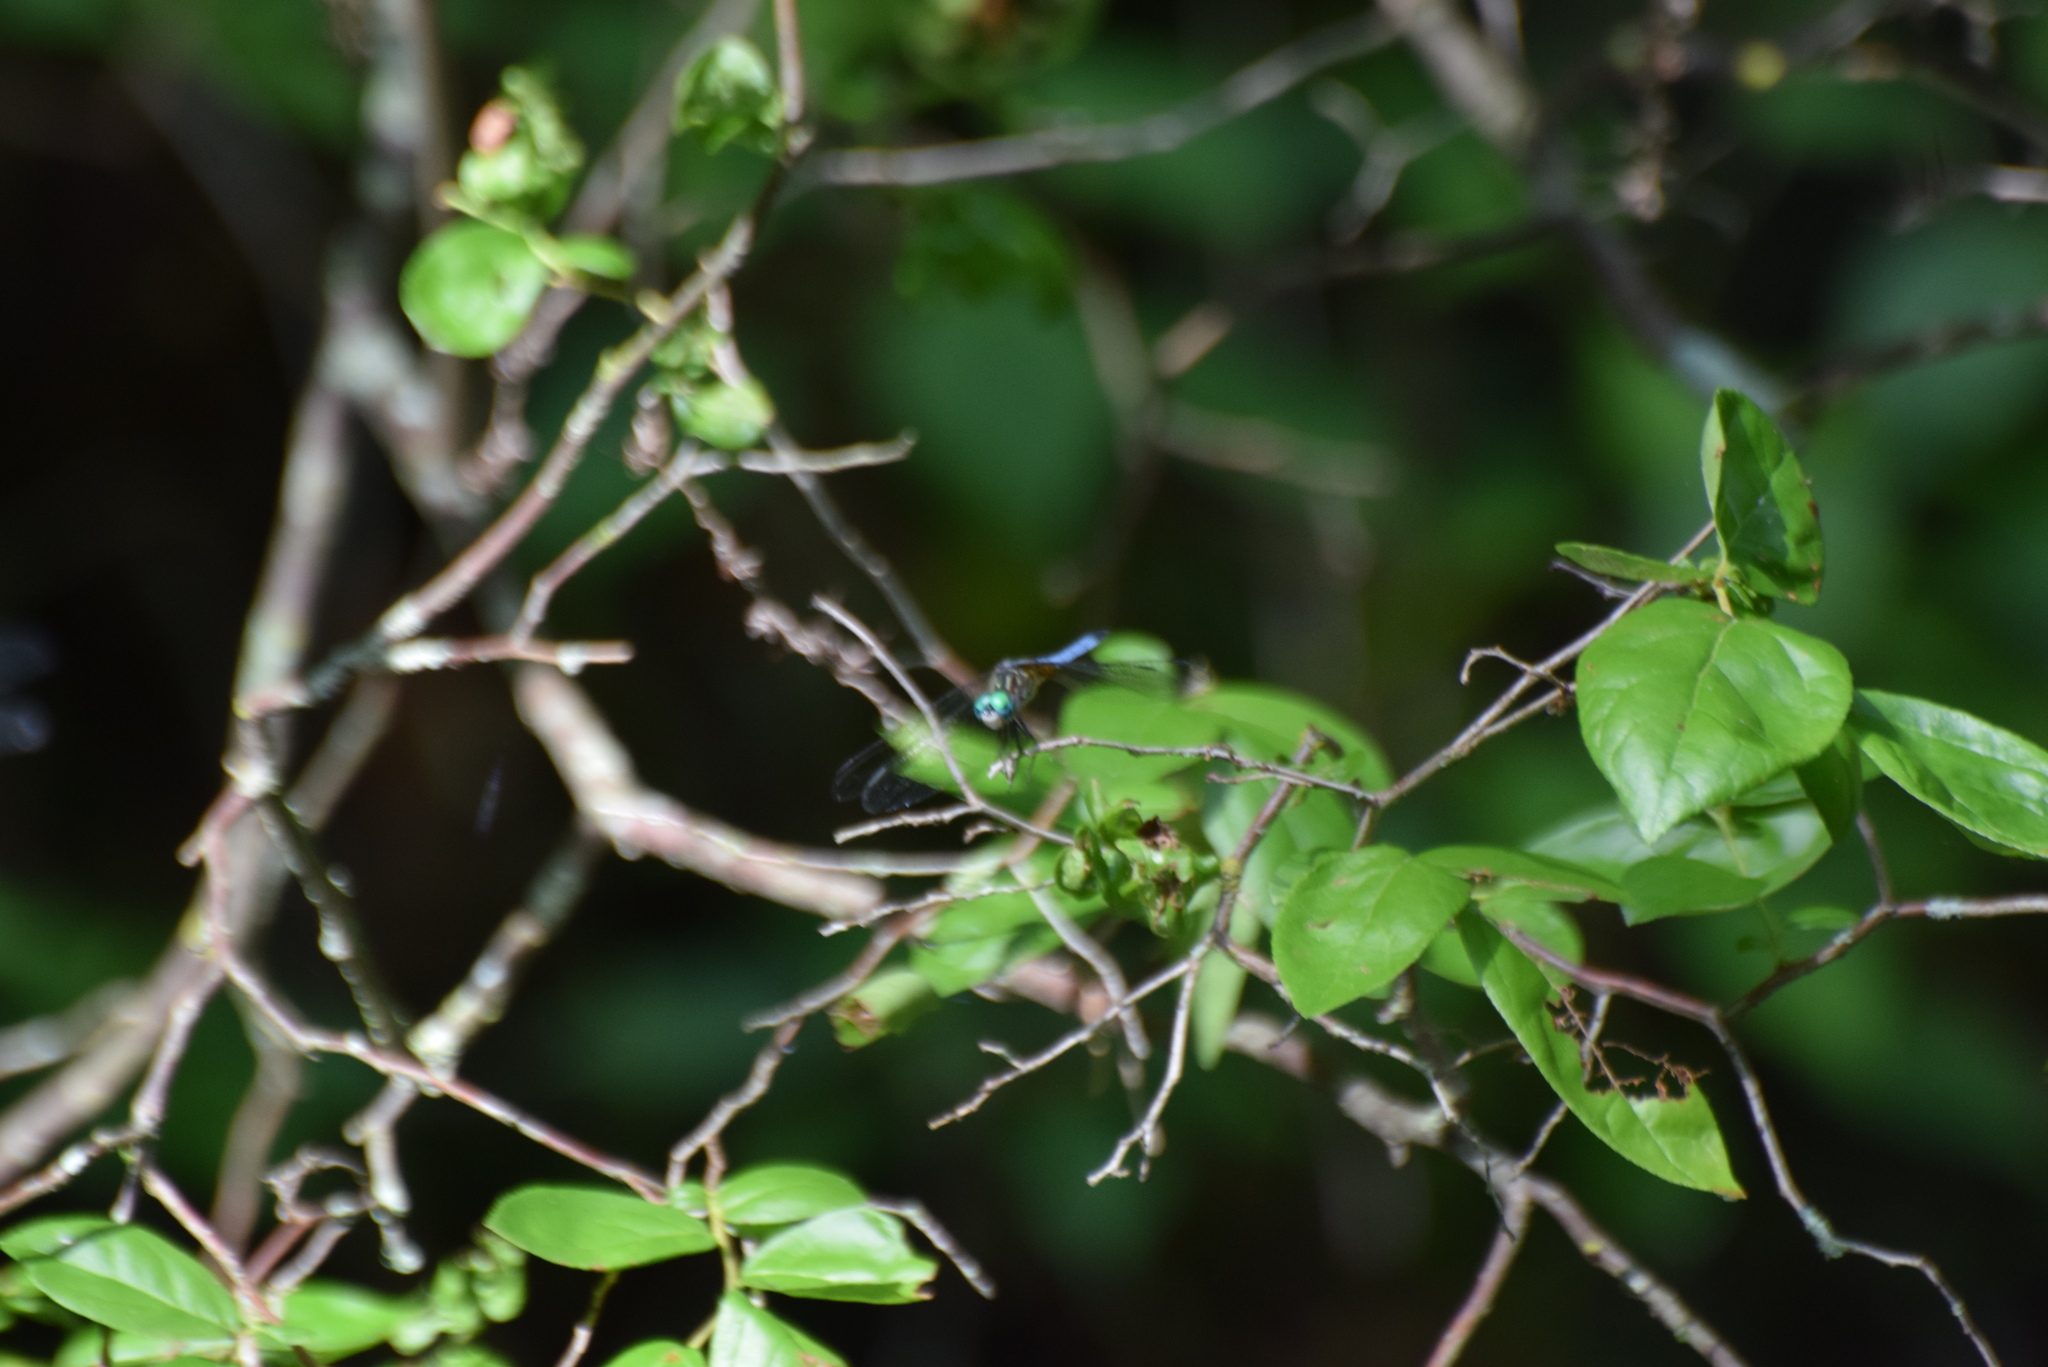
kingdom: Animalia
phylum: Arthropoda
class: Insecta
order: Odonata
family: Libellulidae
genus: Pachydiplax
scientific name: Pachydiplax longipennis
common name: Blue dasher
